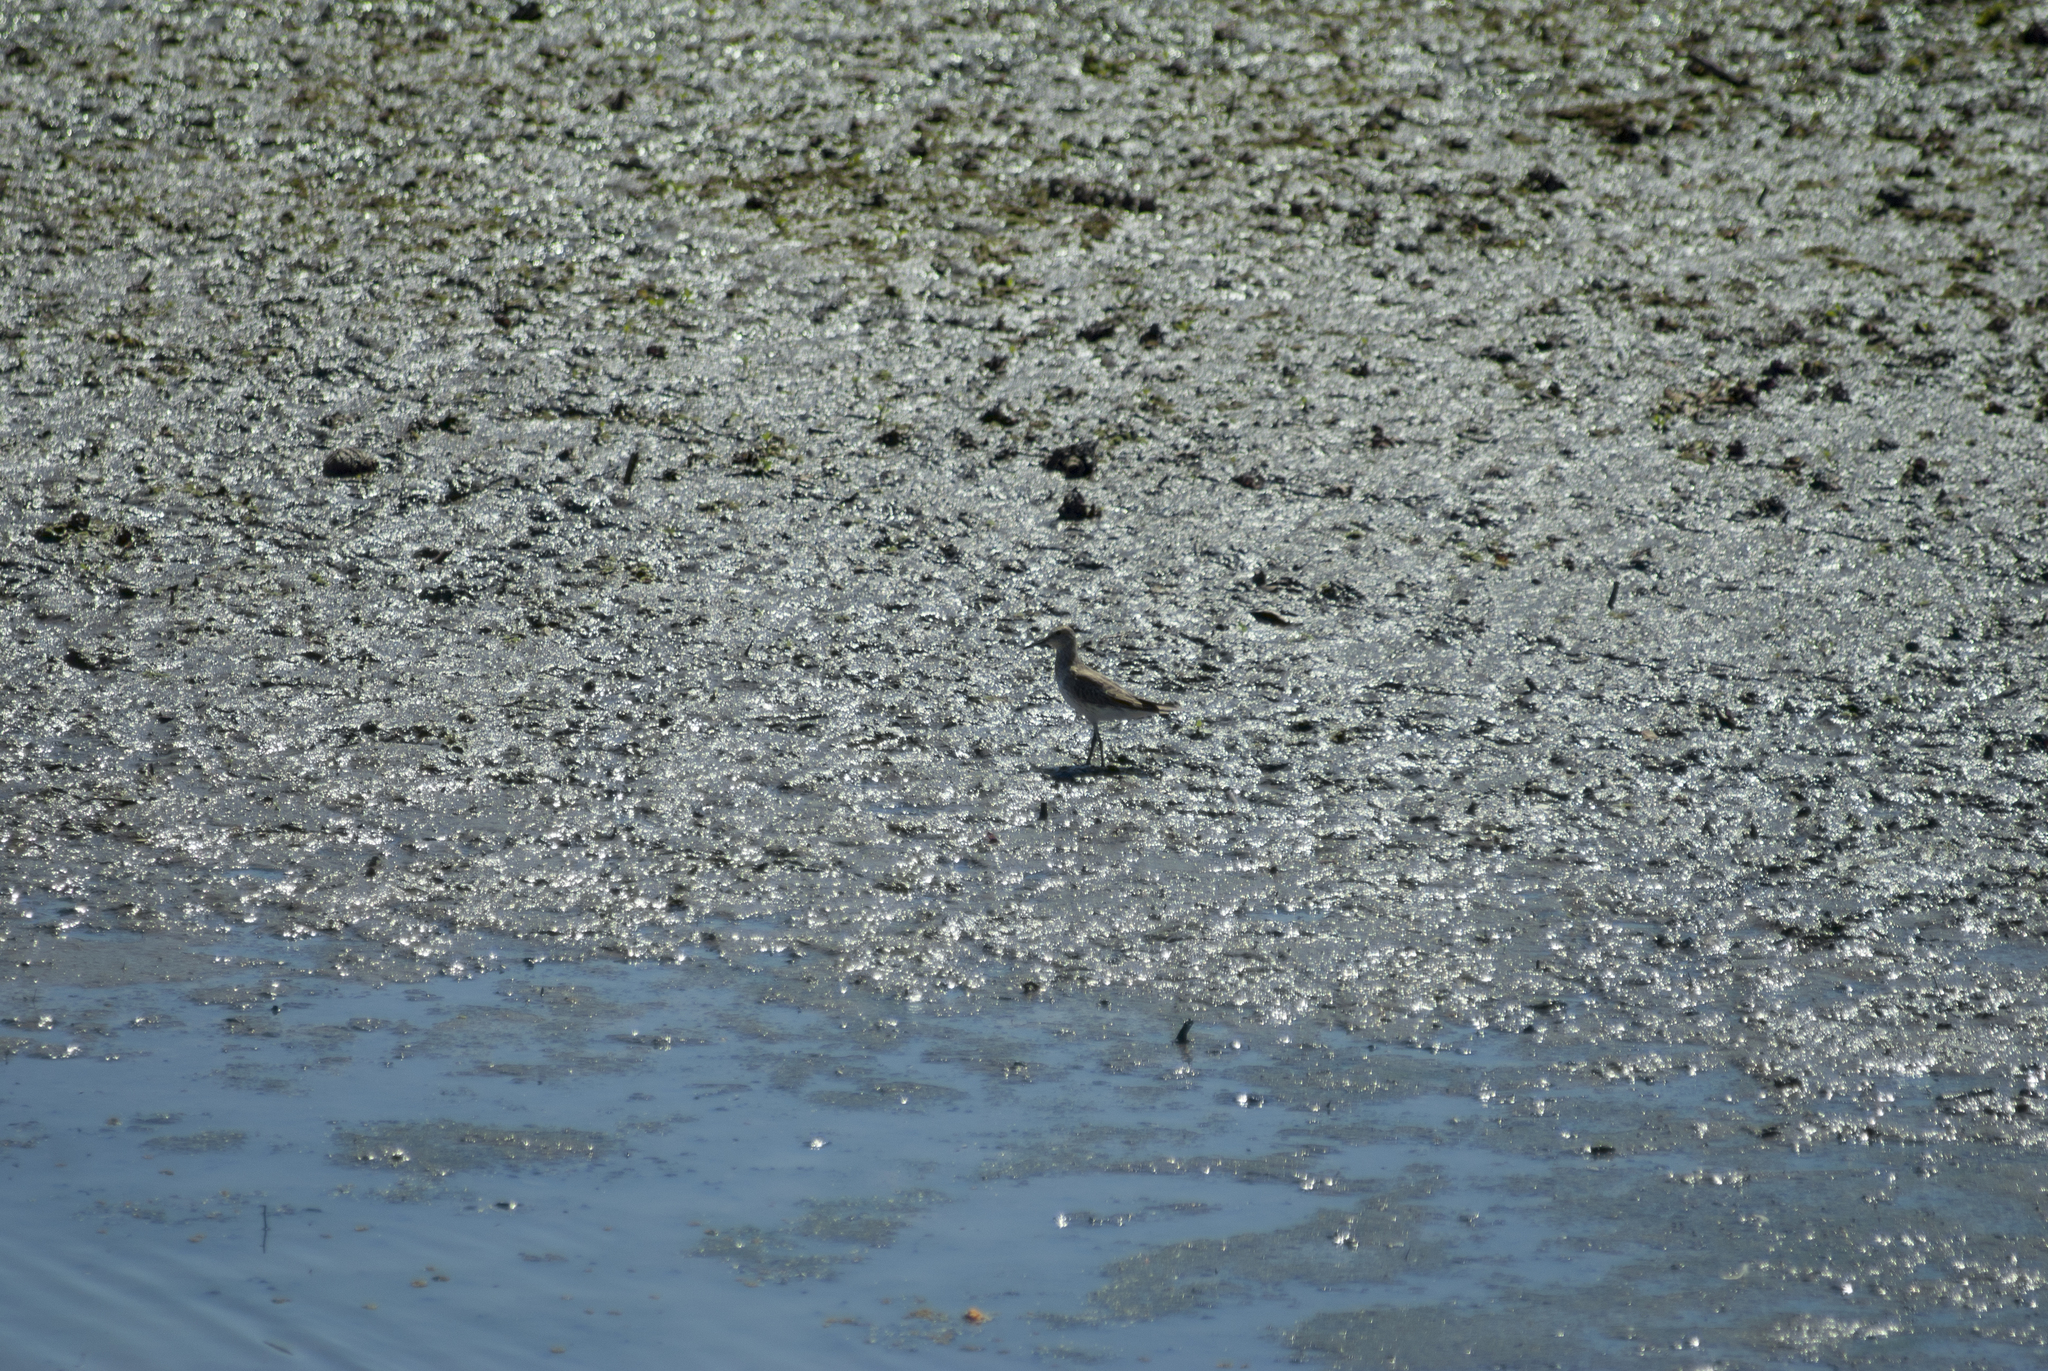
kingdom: Animalia
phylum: Chordata
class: Aves
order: Charadriiformes
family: Scolopacidae
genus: Calidris
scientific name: Calidris fuscicollis
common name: White-rumped sandpiper
